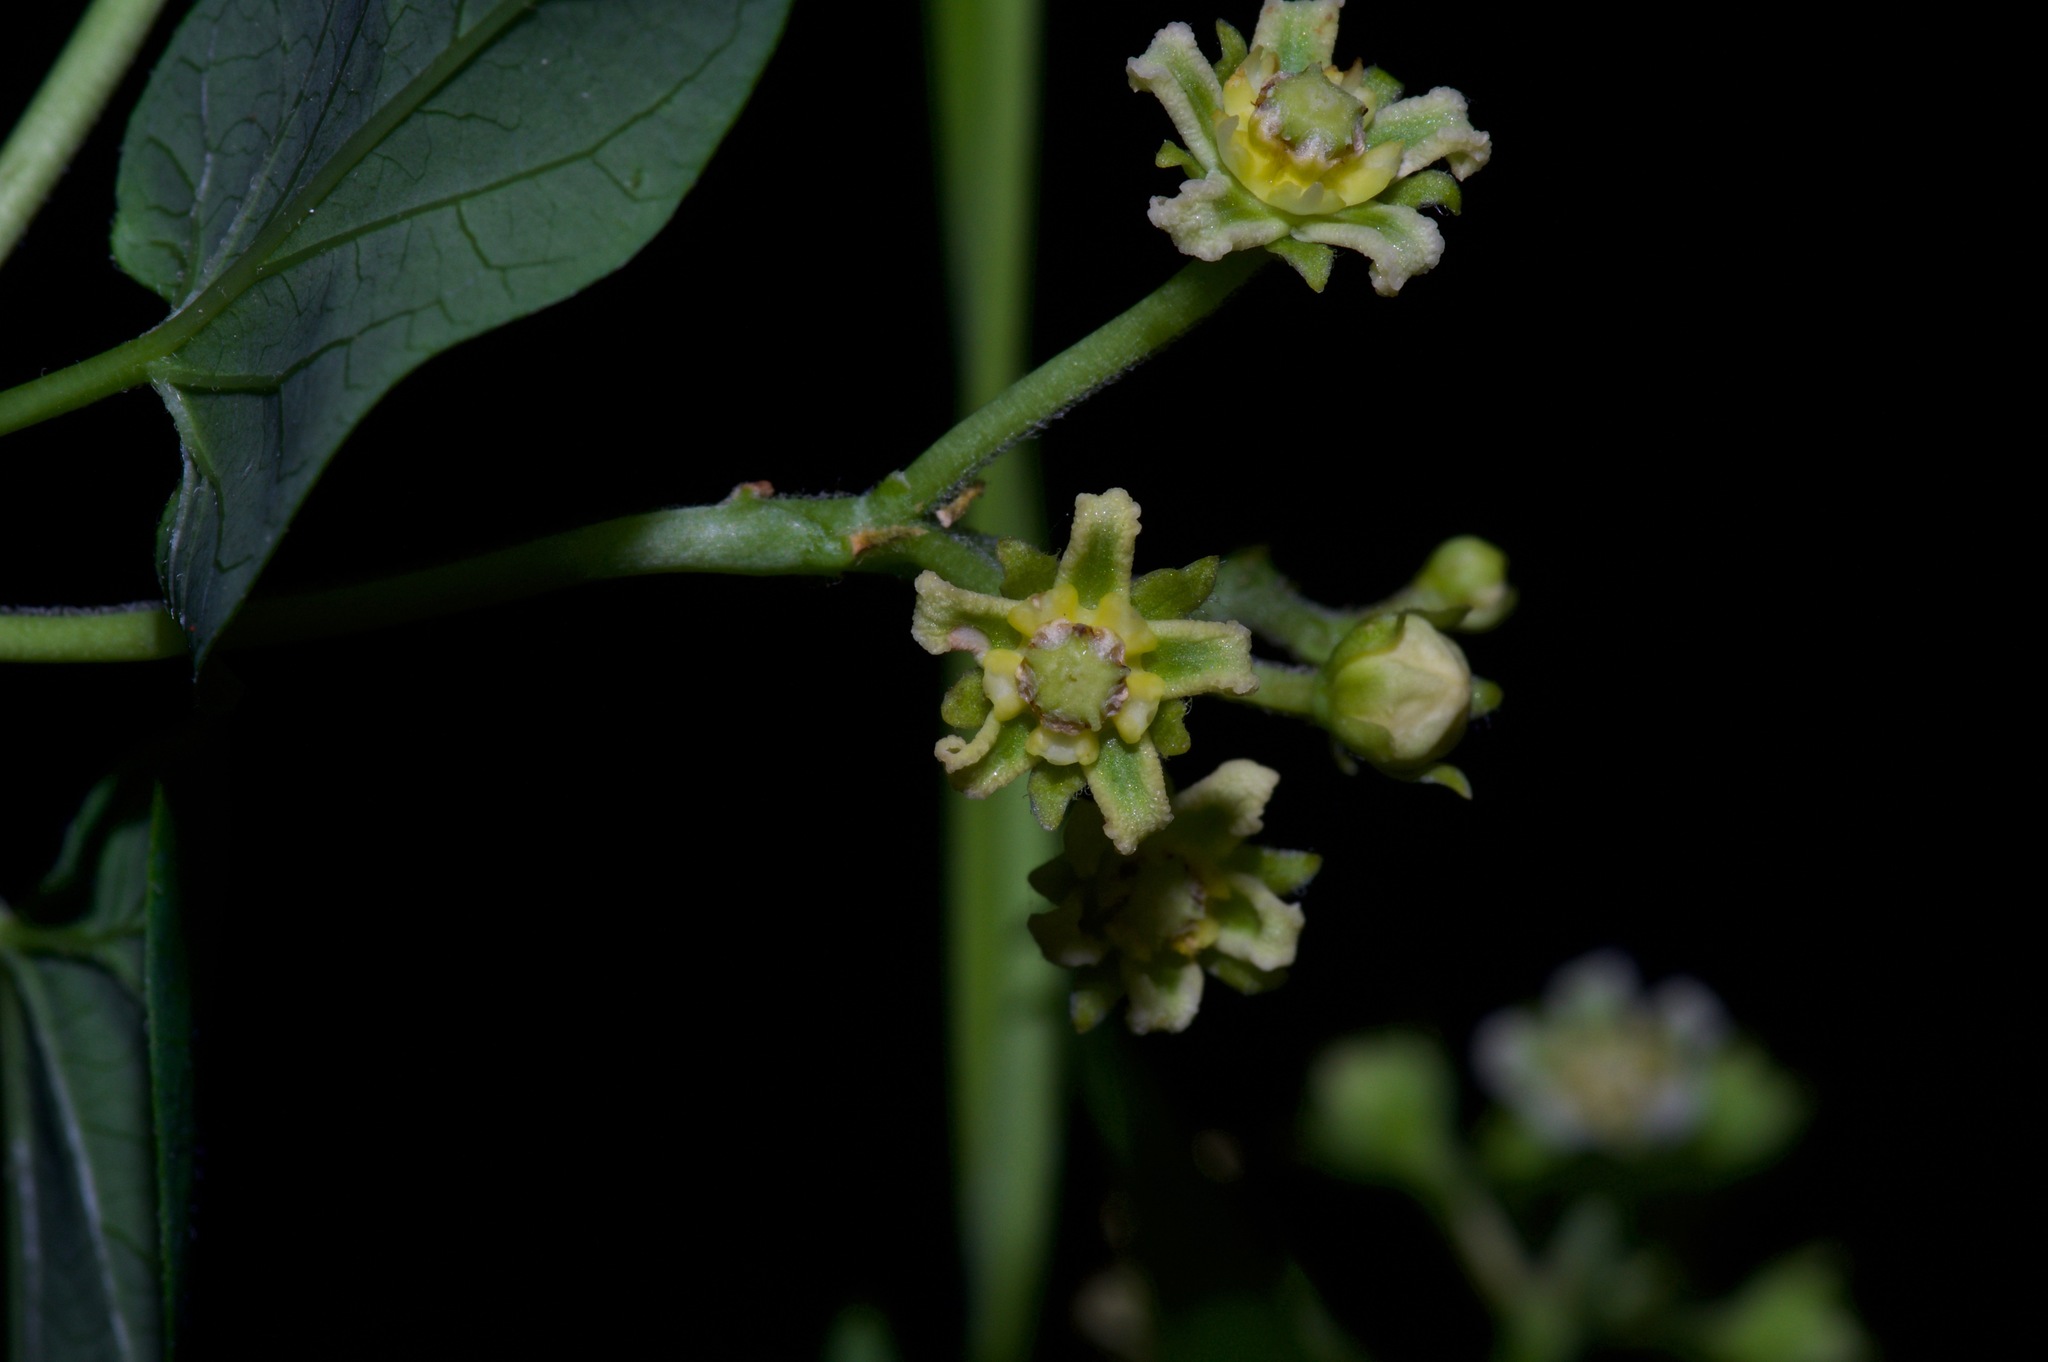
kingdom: Plantae
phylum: Tracheophyta
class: Magnoliopsida
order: Gentianales
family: Apocynaceae
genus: Cynanchum
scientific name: Cynanchum racemosum
